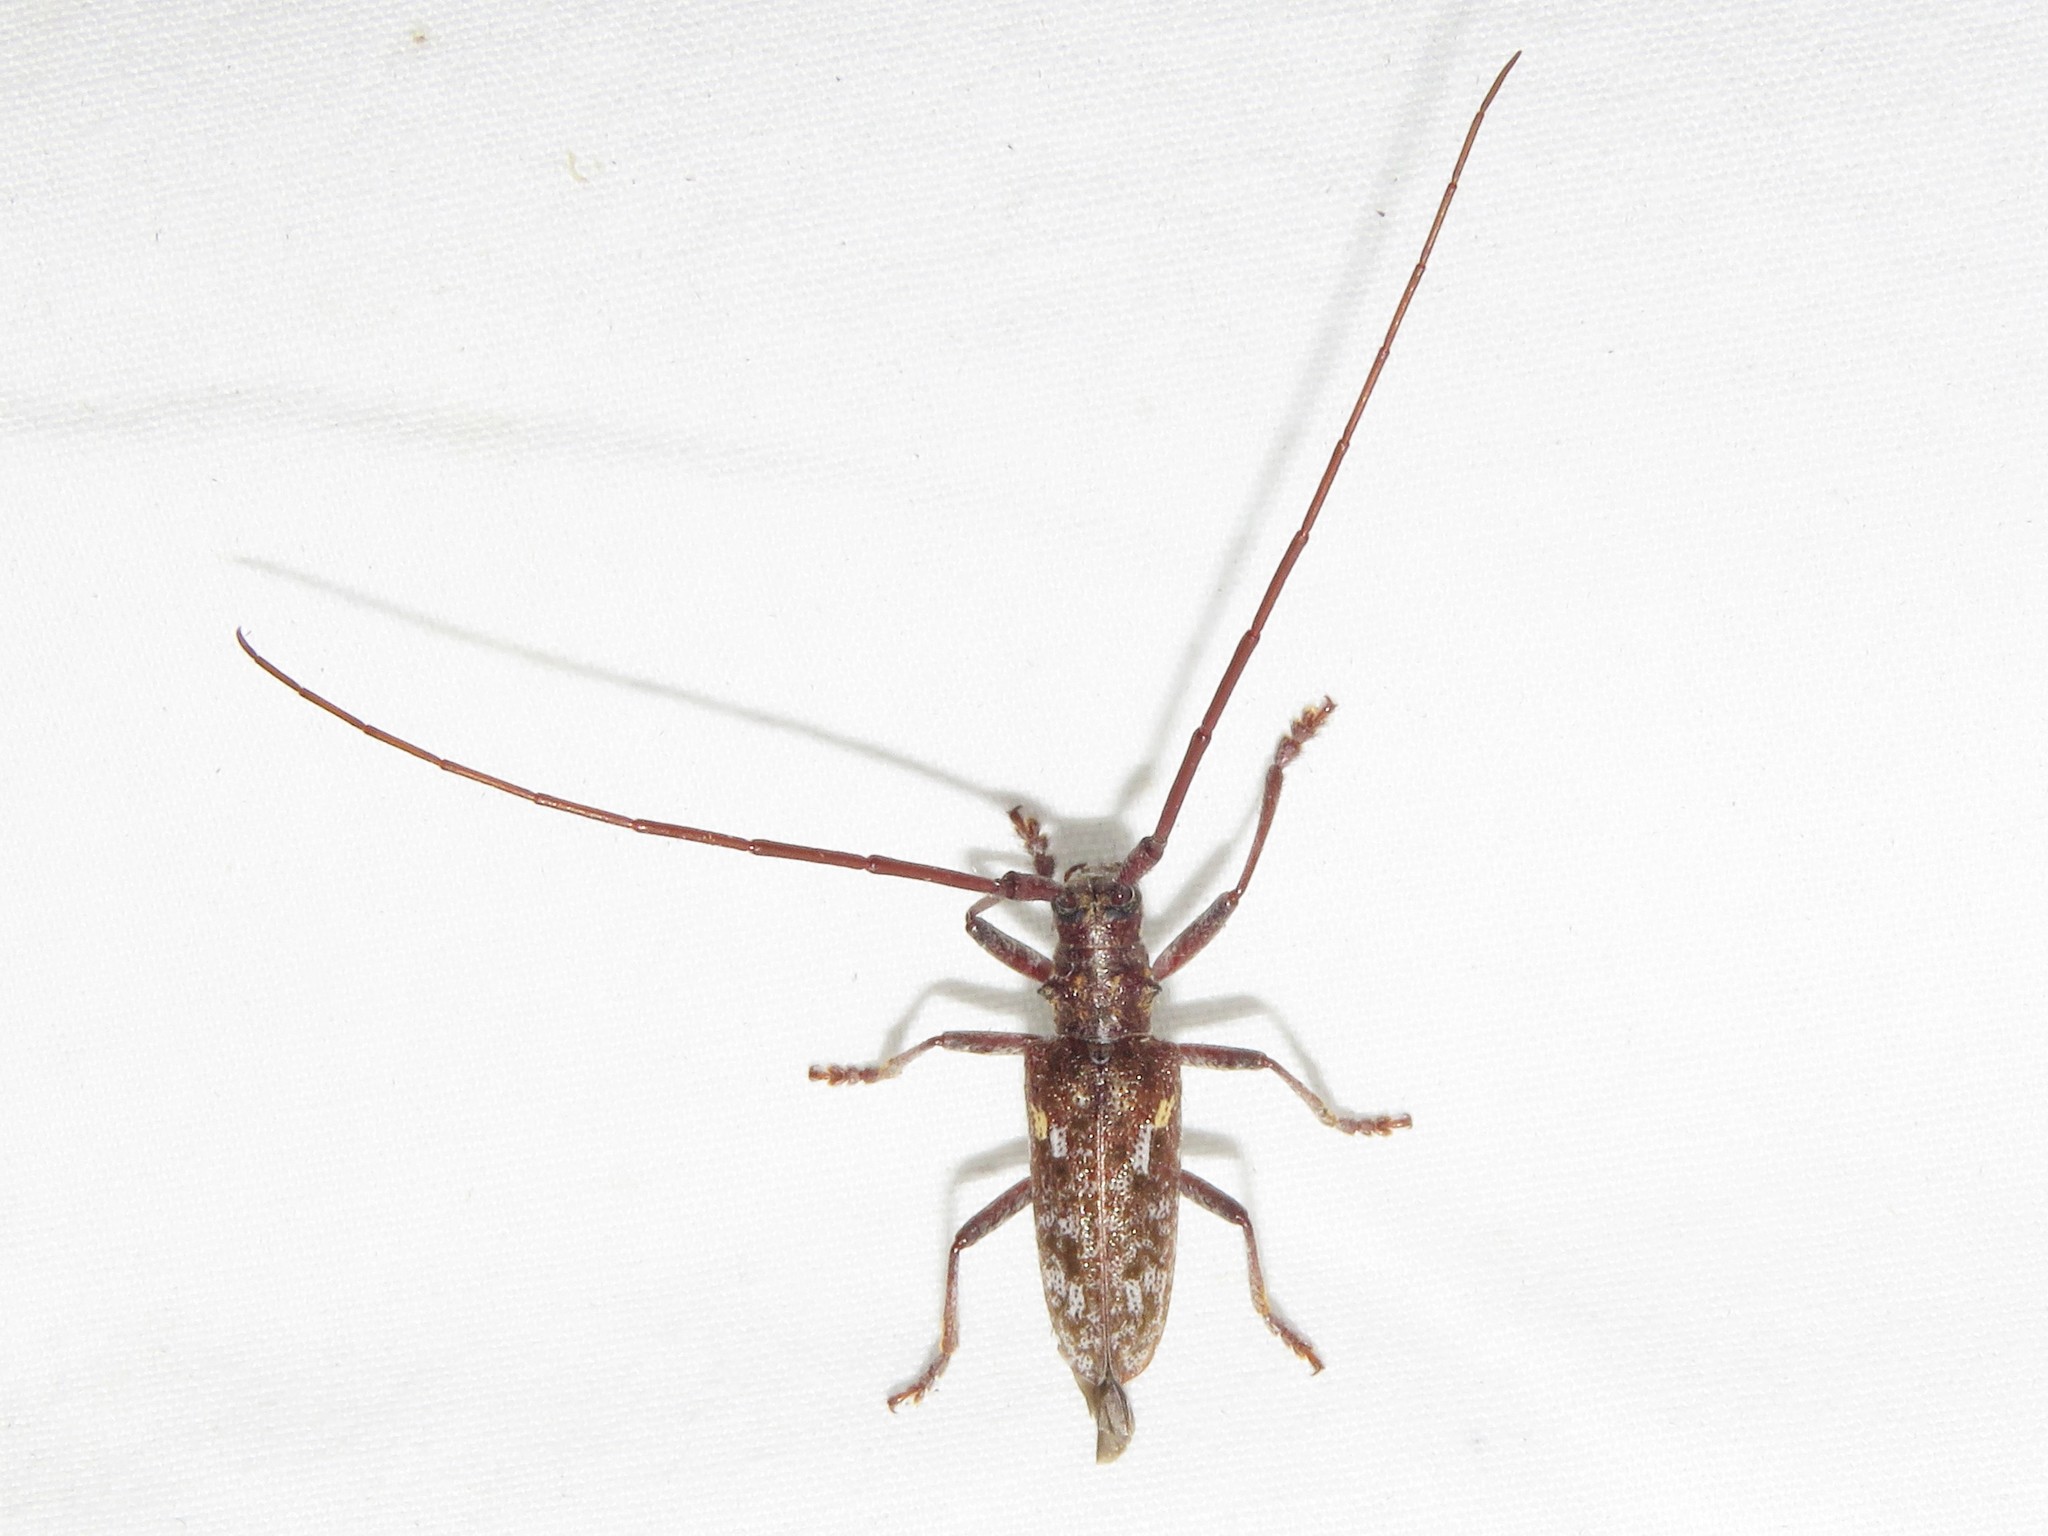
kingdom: Animalia
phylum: Arthropoda
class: Insecta
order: Coleoptera
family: Cerambycidae
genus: Monochamus
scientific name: Monochamus carolinensis
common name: Carolina pine sawyer
